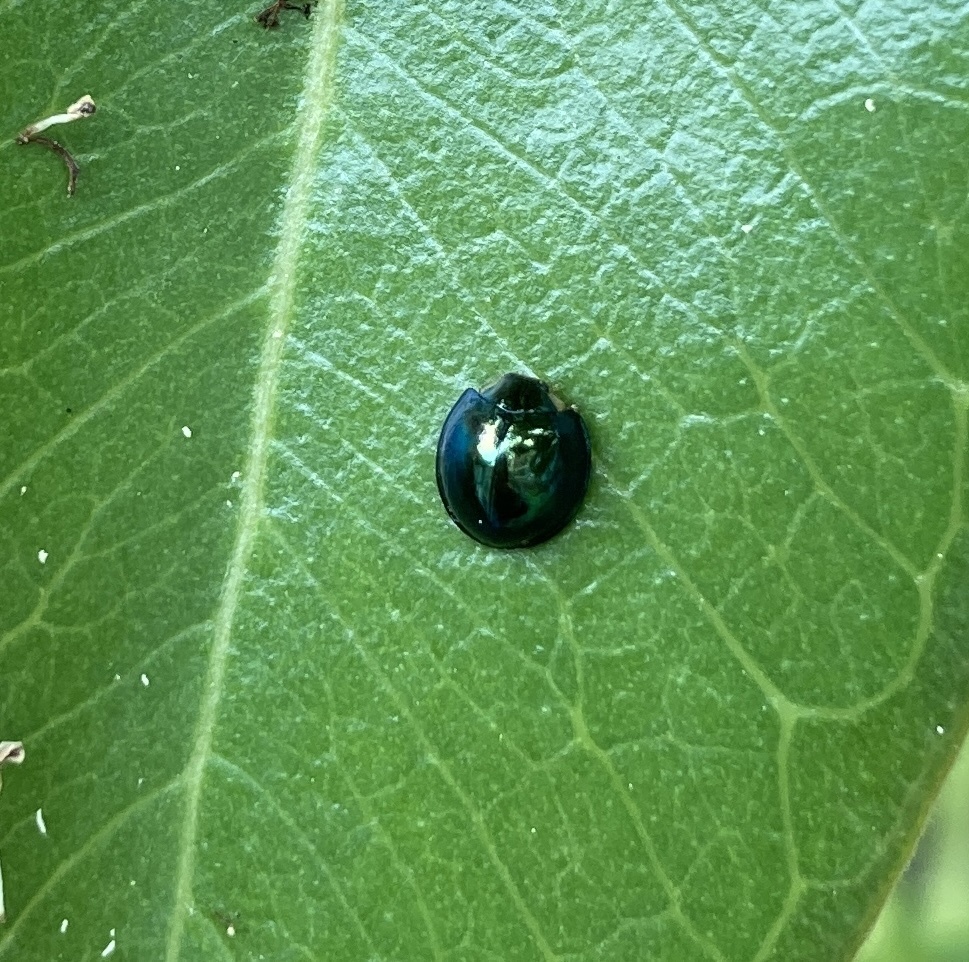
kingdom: Animalia
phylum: Arthropoda
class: Insecta
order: Coleoptera
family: Coccinellidae
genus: Halmus
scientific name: Halmus chalybeus
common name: Steel blue ladybird beetle
